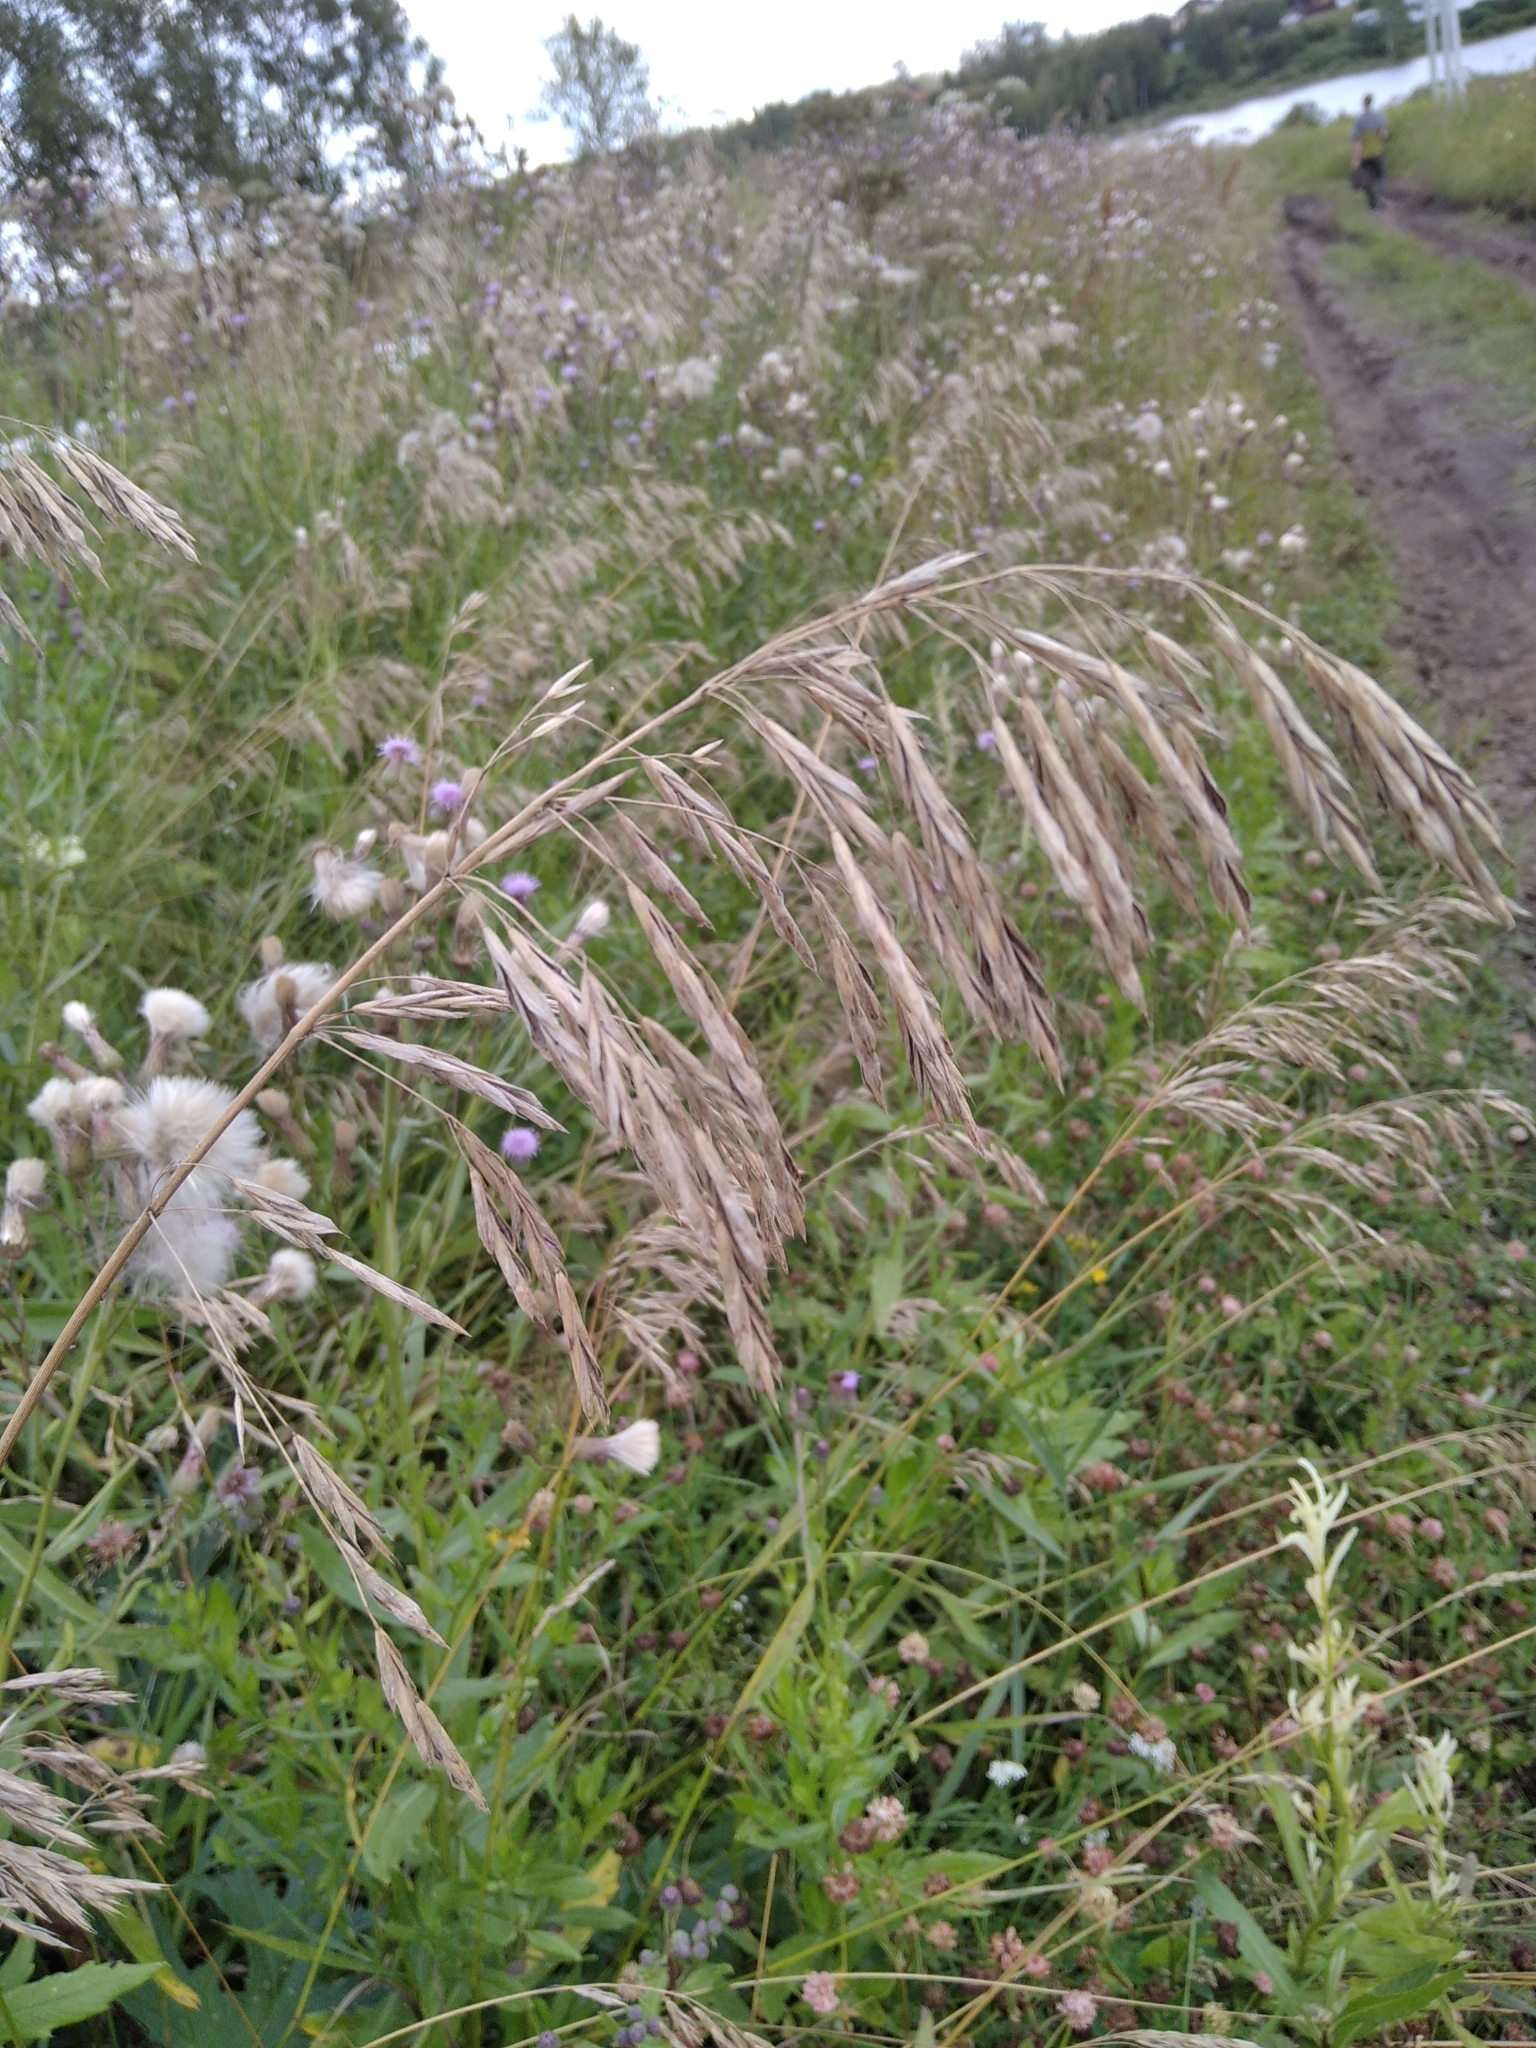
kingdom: Plantae
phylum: Tracheophyta
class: Liliopsida
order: Poales
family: Poaceae
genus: Bromus
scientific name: Bromus inermis
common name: Smooth brome
